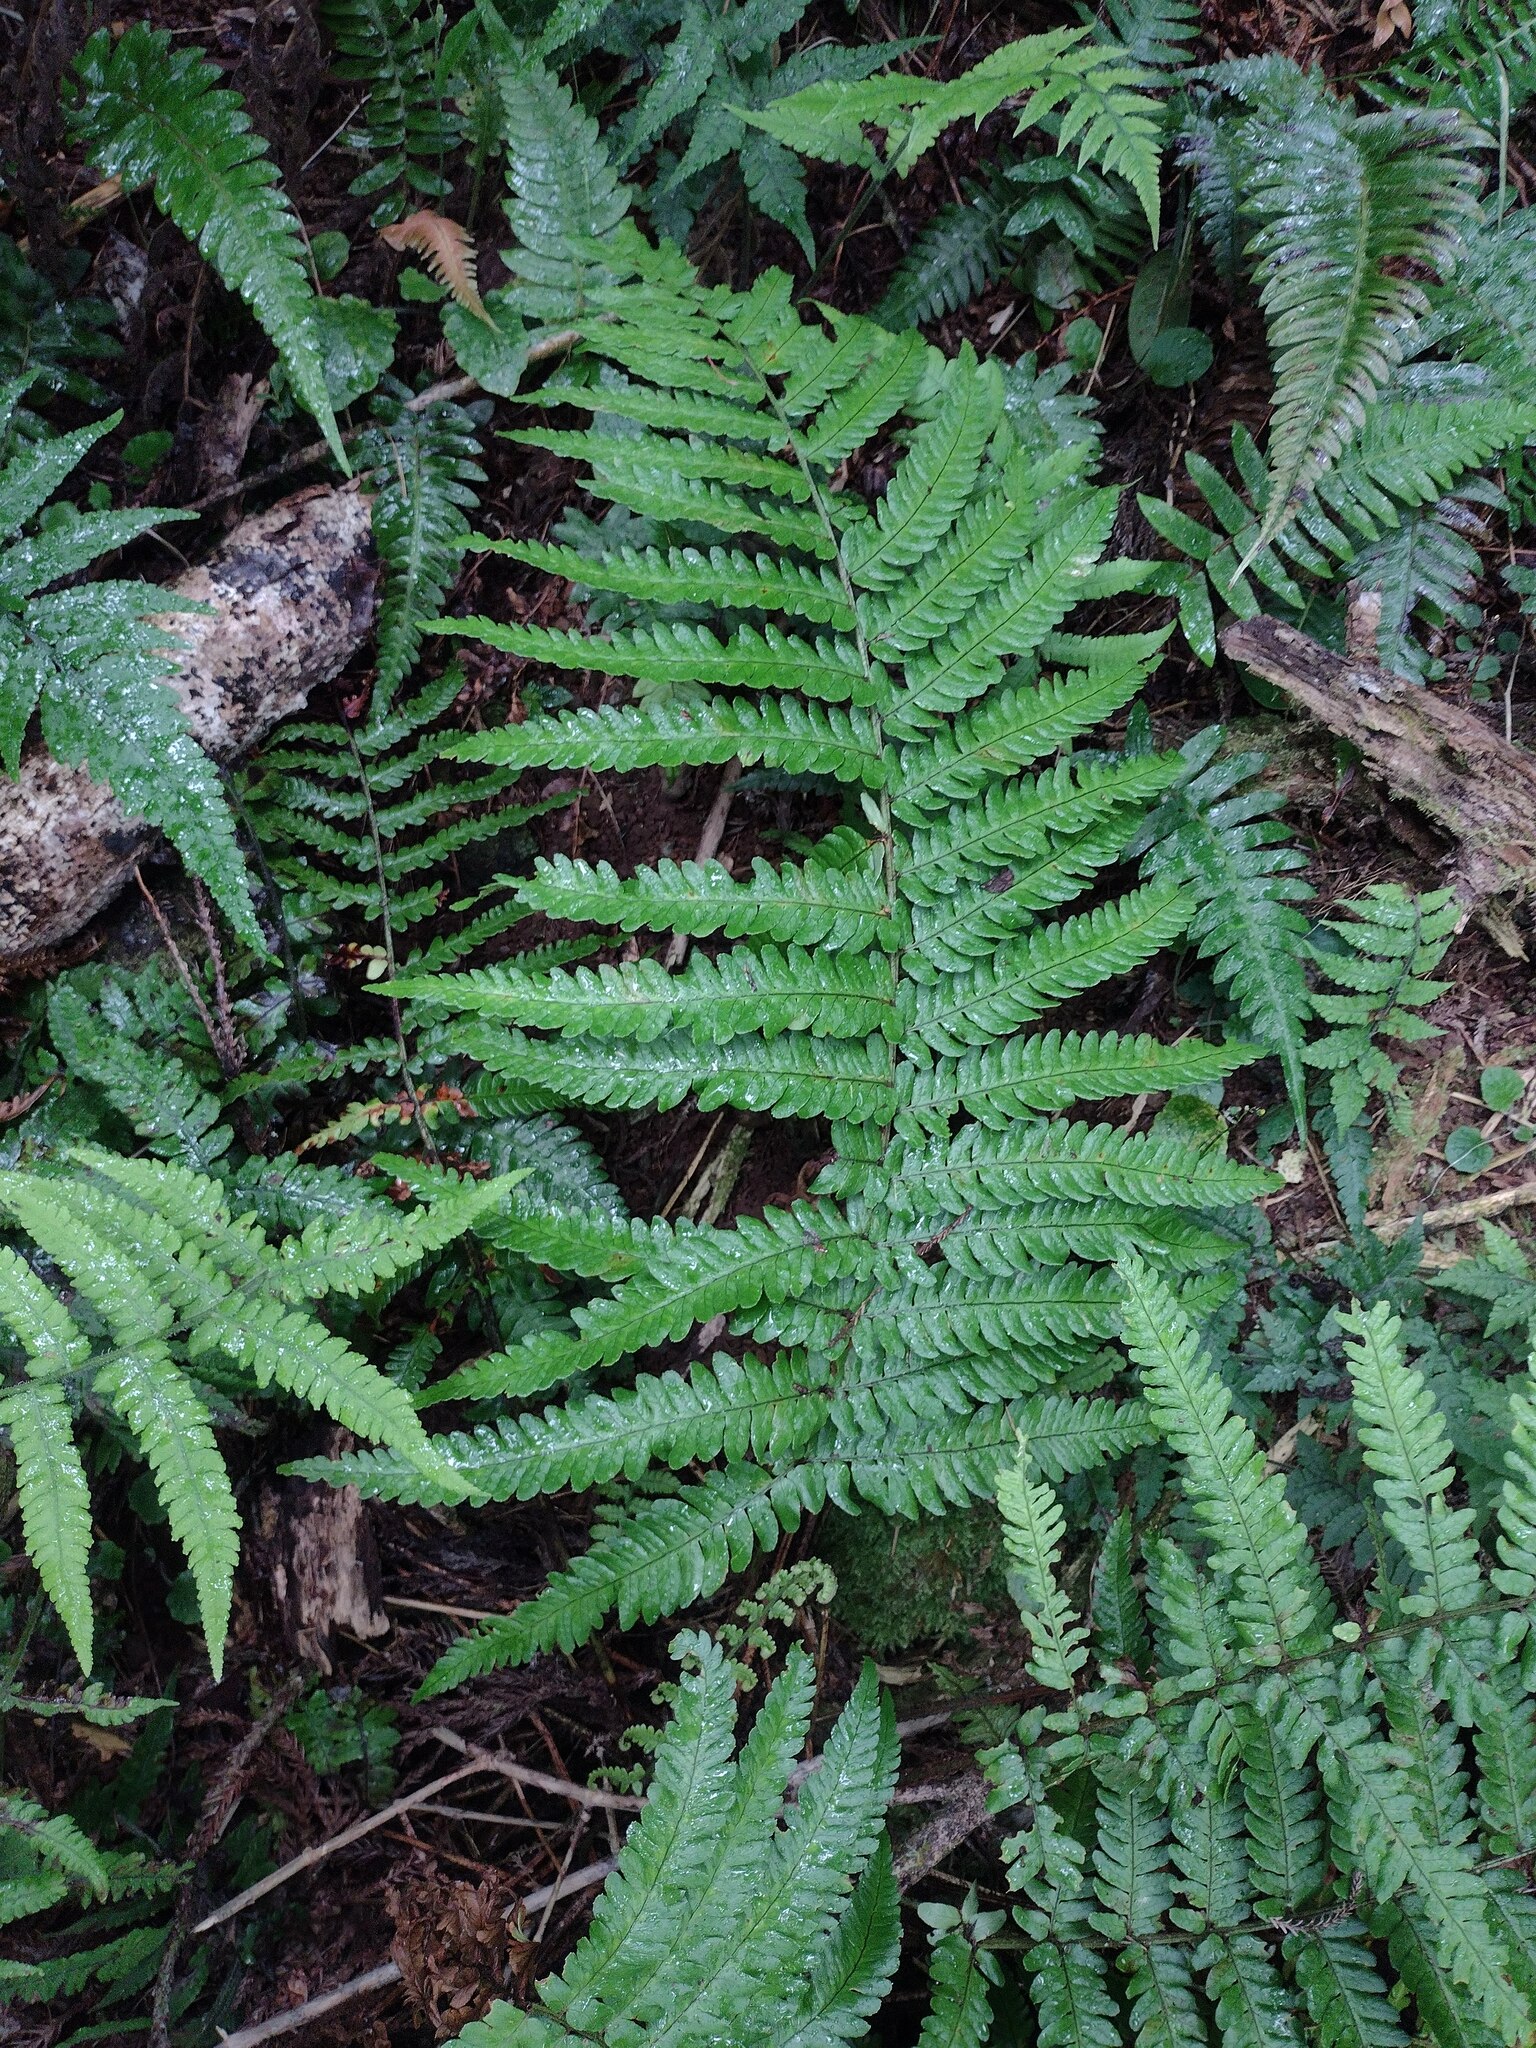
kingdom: Plantae
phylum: Tracheophyta
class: Polypodiopsida
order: Polypodiales
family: Dryopteridaceae
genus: Dryopteris
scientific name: Dryopteris fuscoatra
